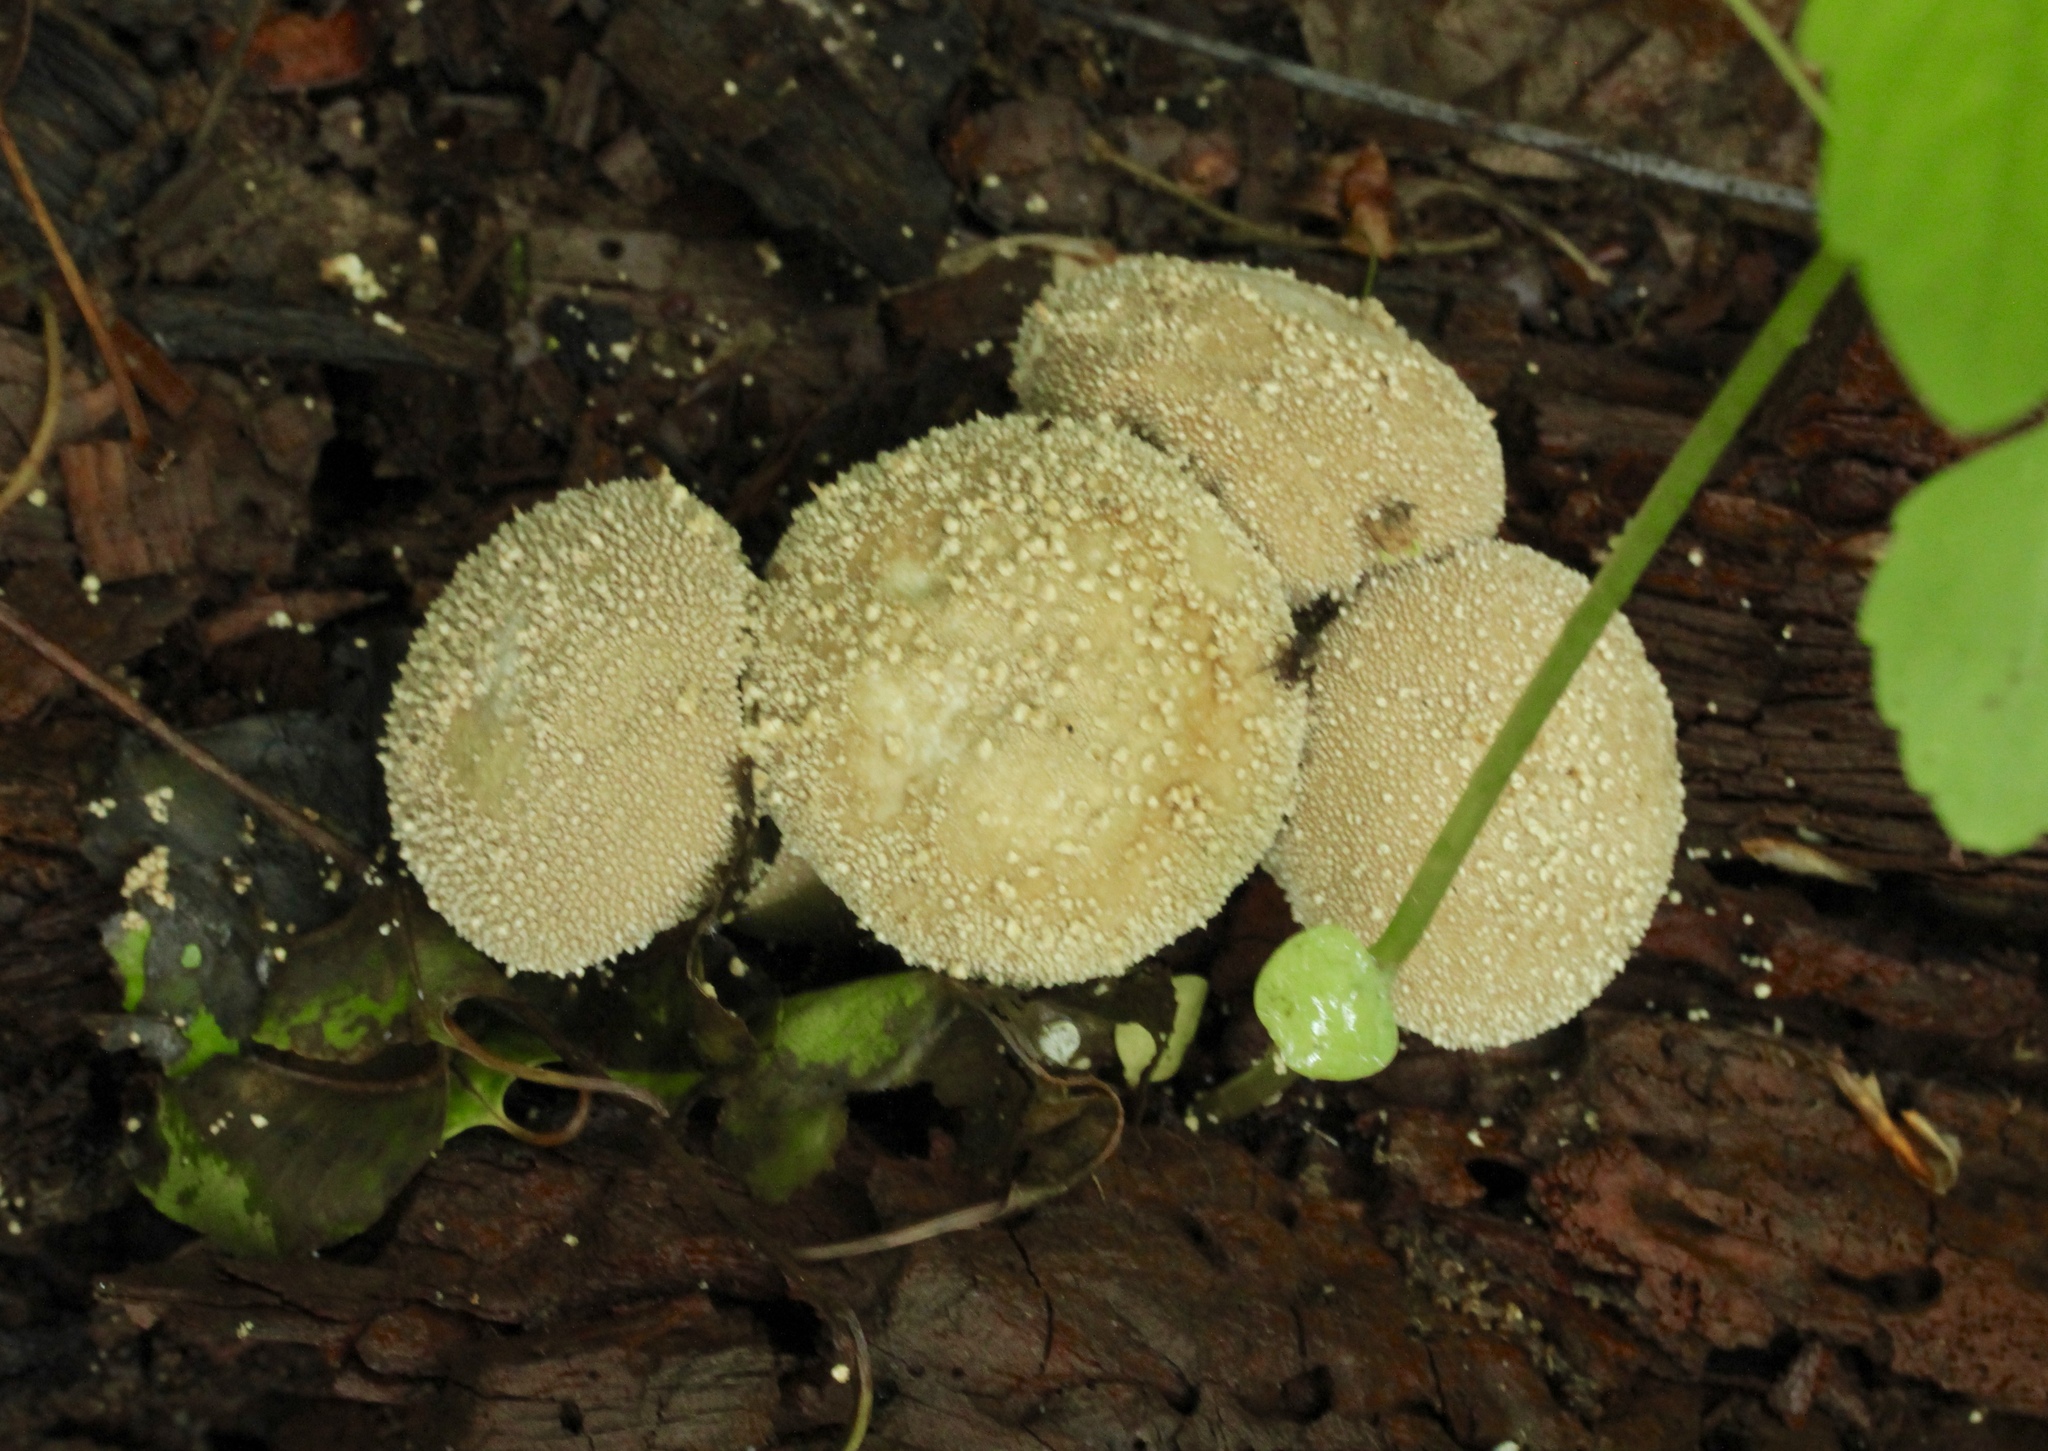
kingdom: Fungi
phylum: Basidiomycota
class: Agaricomycetes
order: Agaricales
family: Lycoperdaceae
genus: Lycoperdon
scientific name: Lycoperdon perlatum
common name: Common puffball
